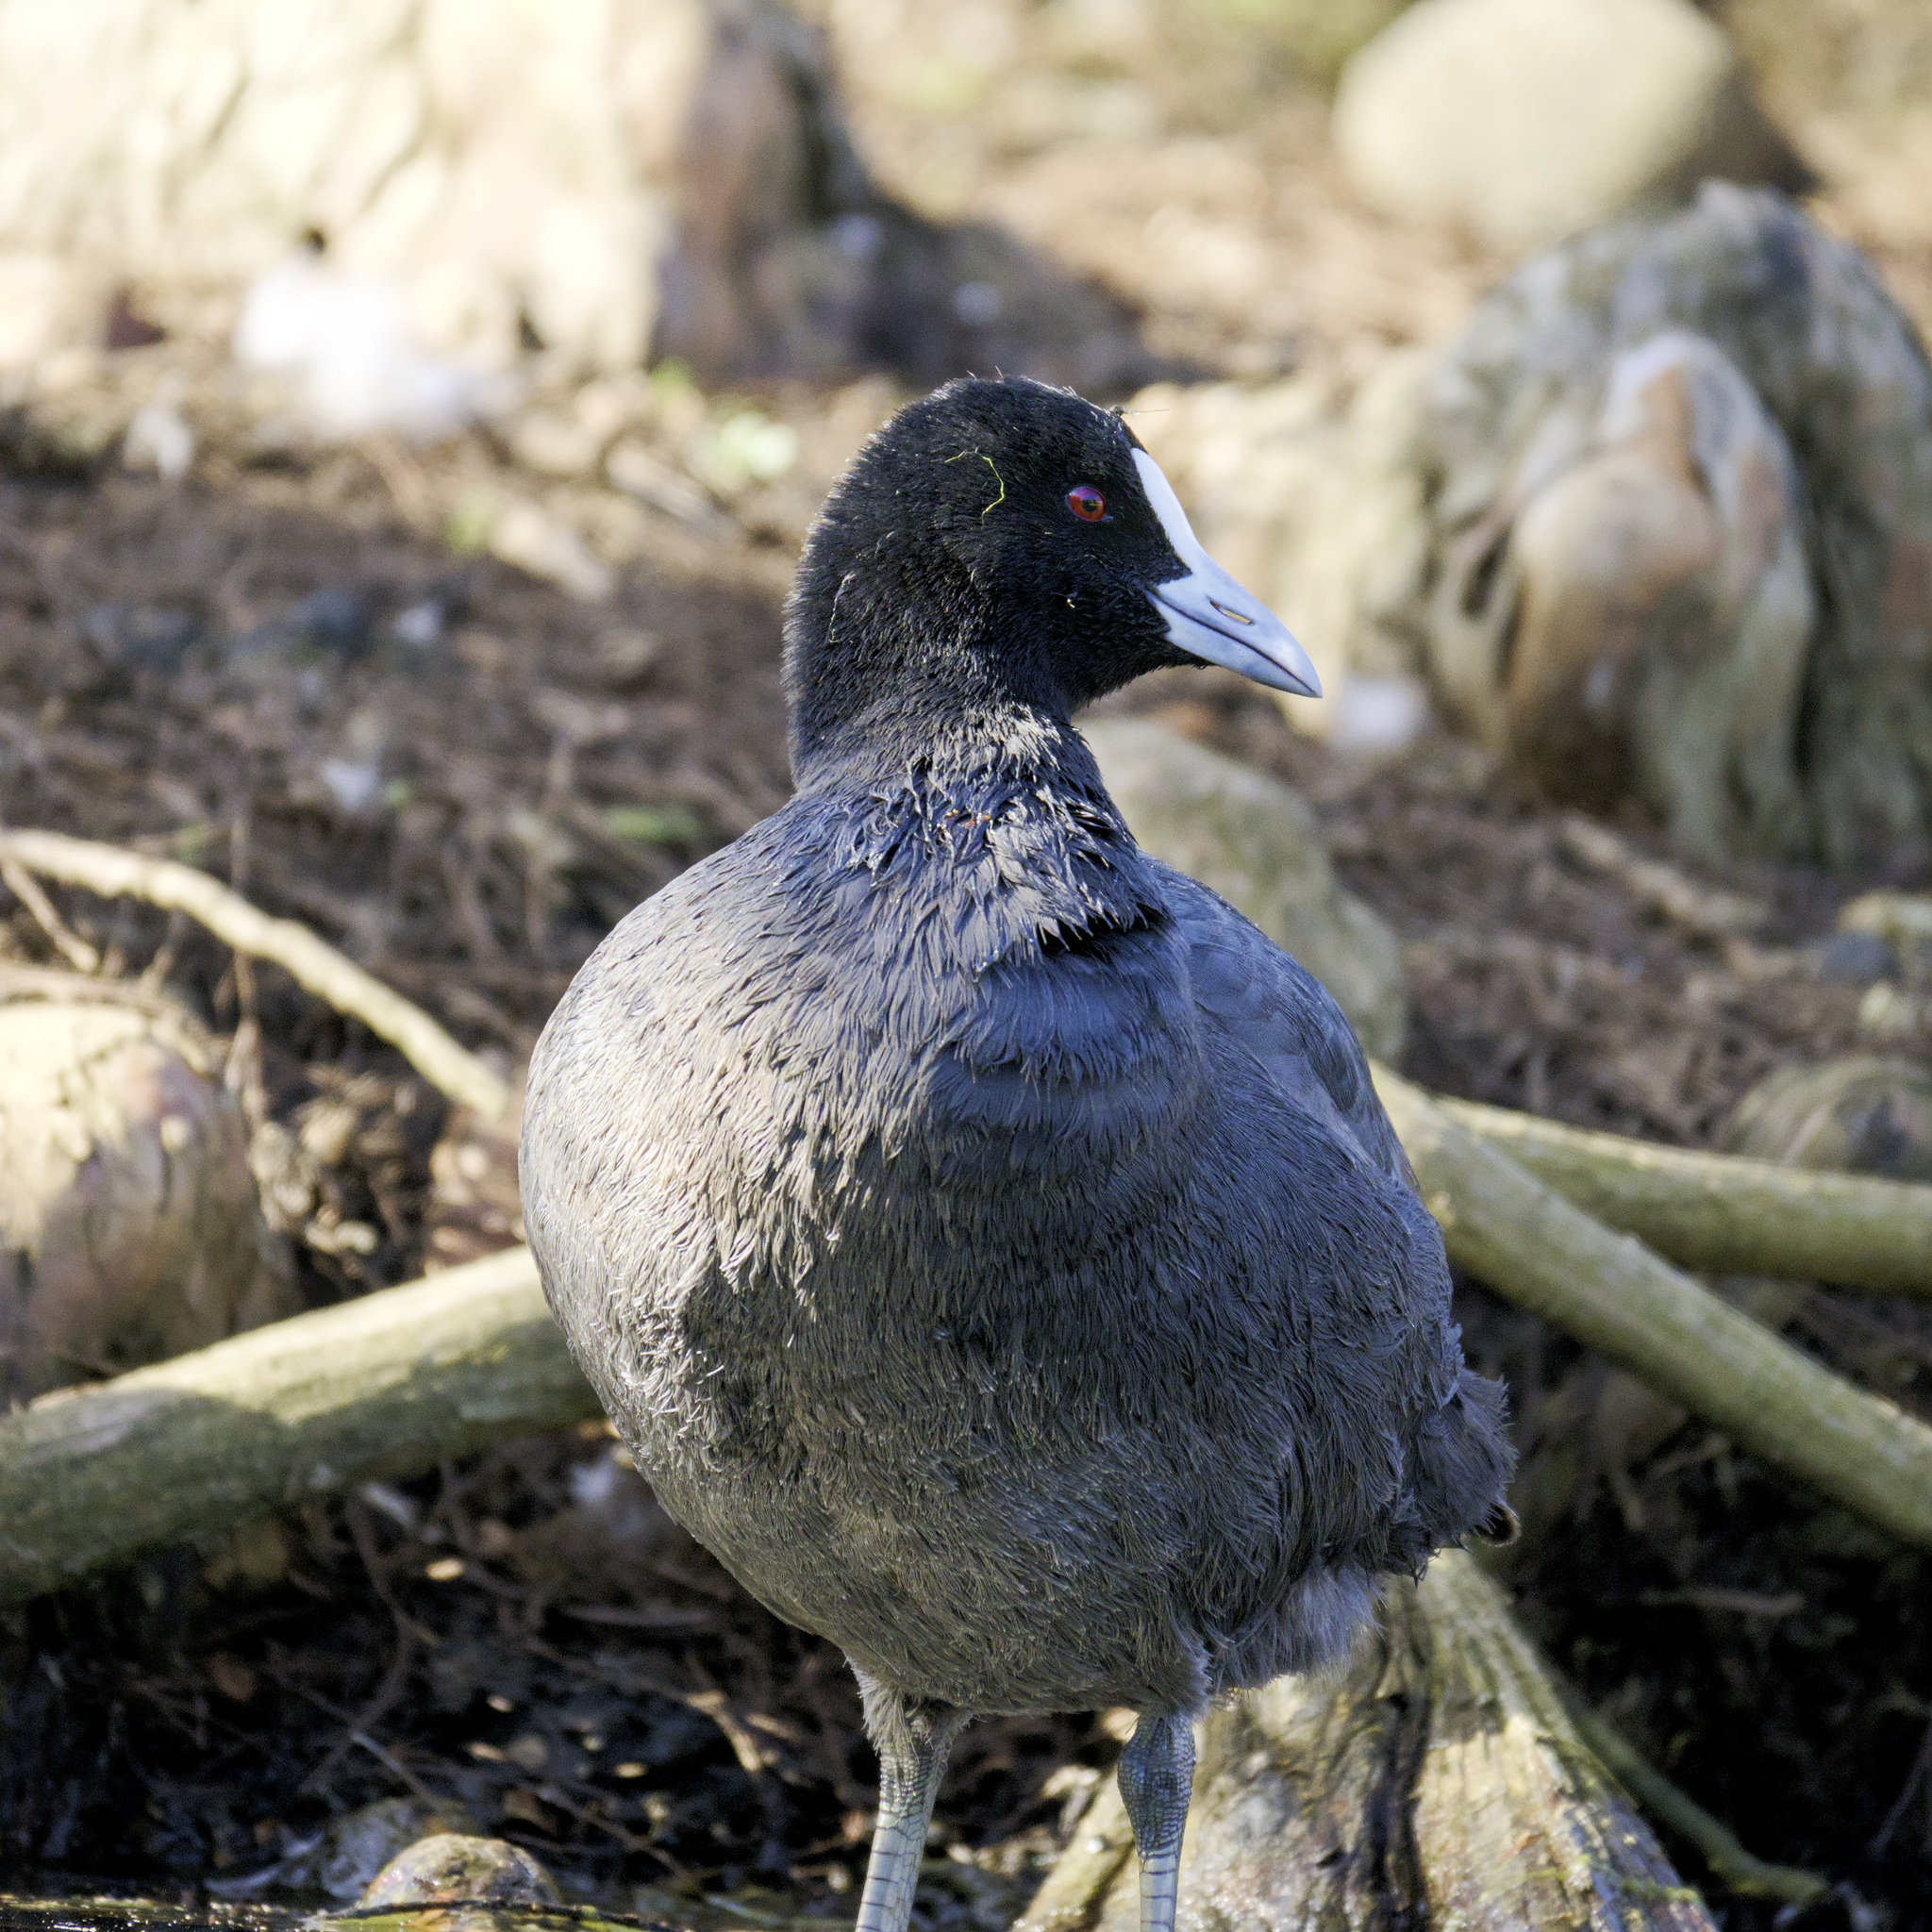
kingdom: Animalia
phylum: Chordata
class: Aves
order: Gruiformes
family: Rallidae
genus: Fulica
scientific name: Fulica atra
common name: Eurasian coot
